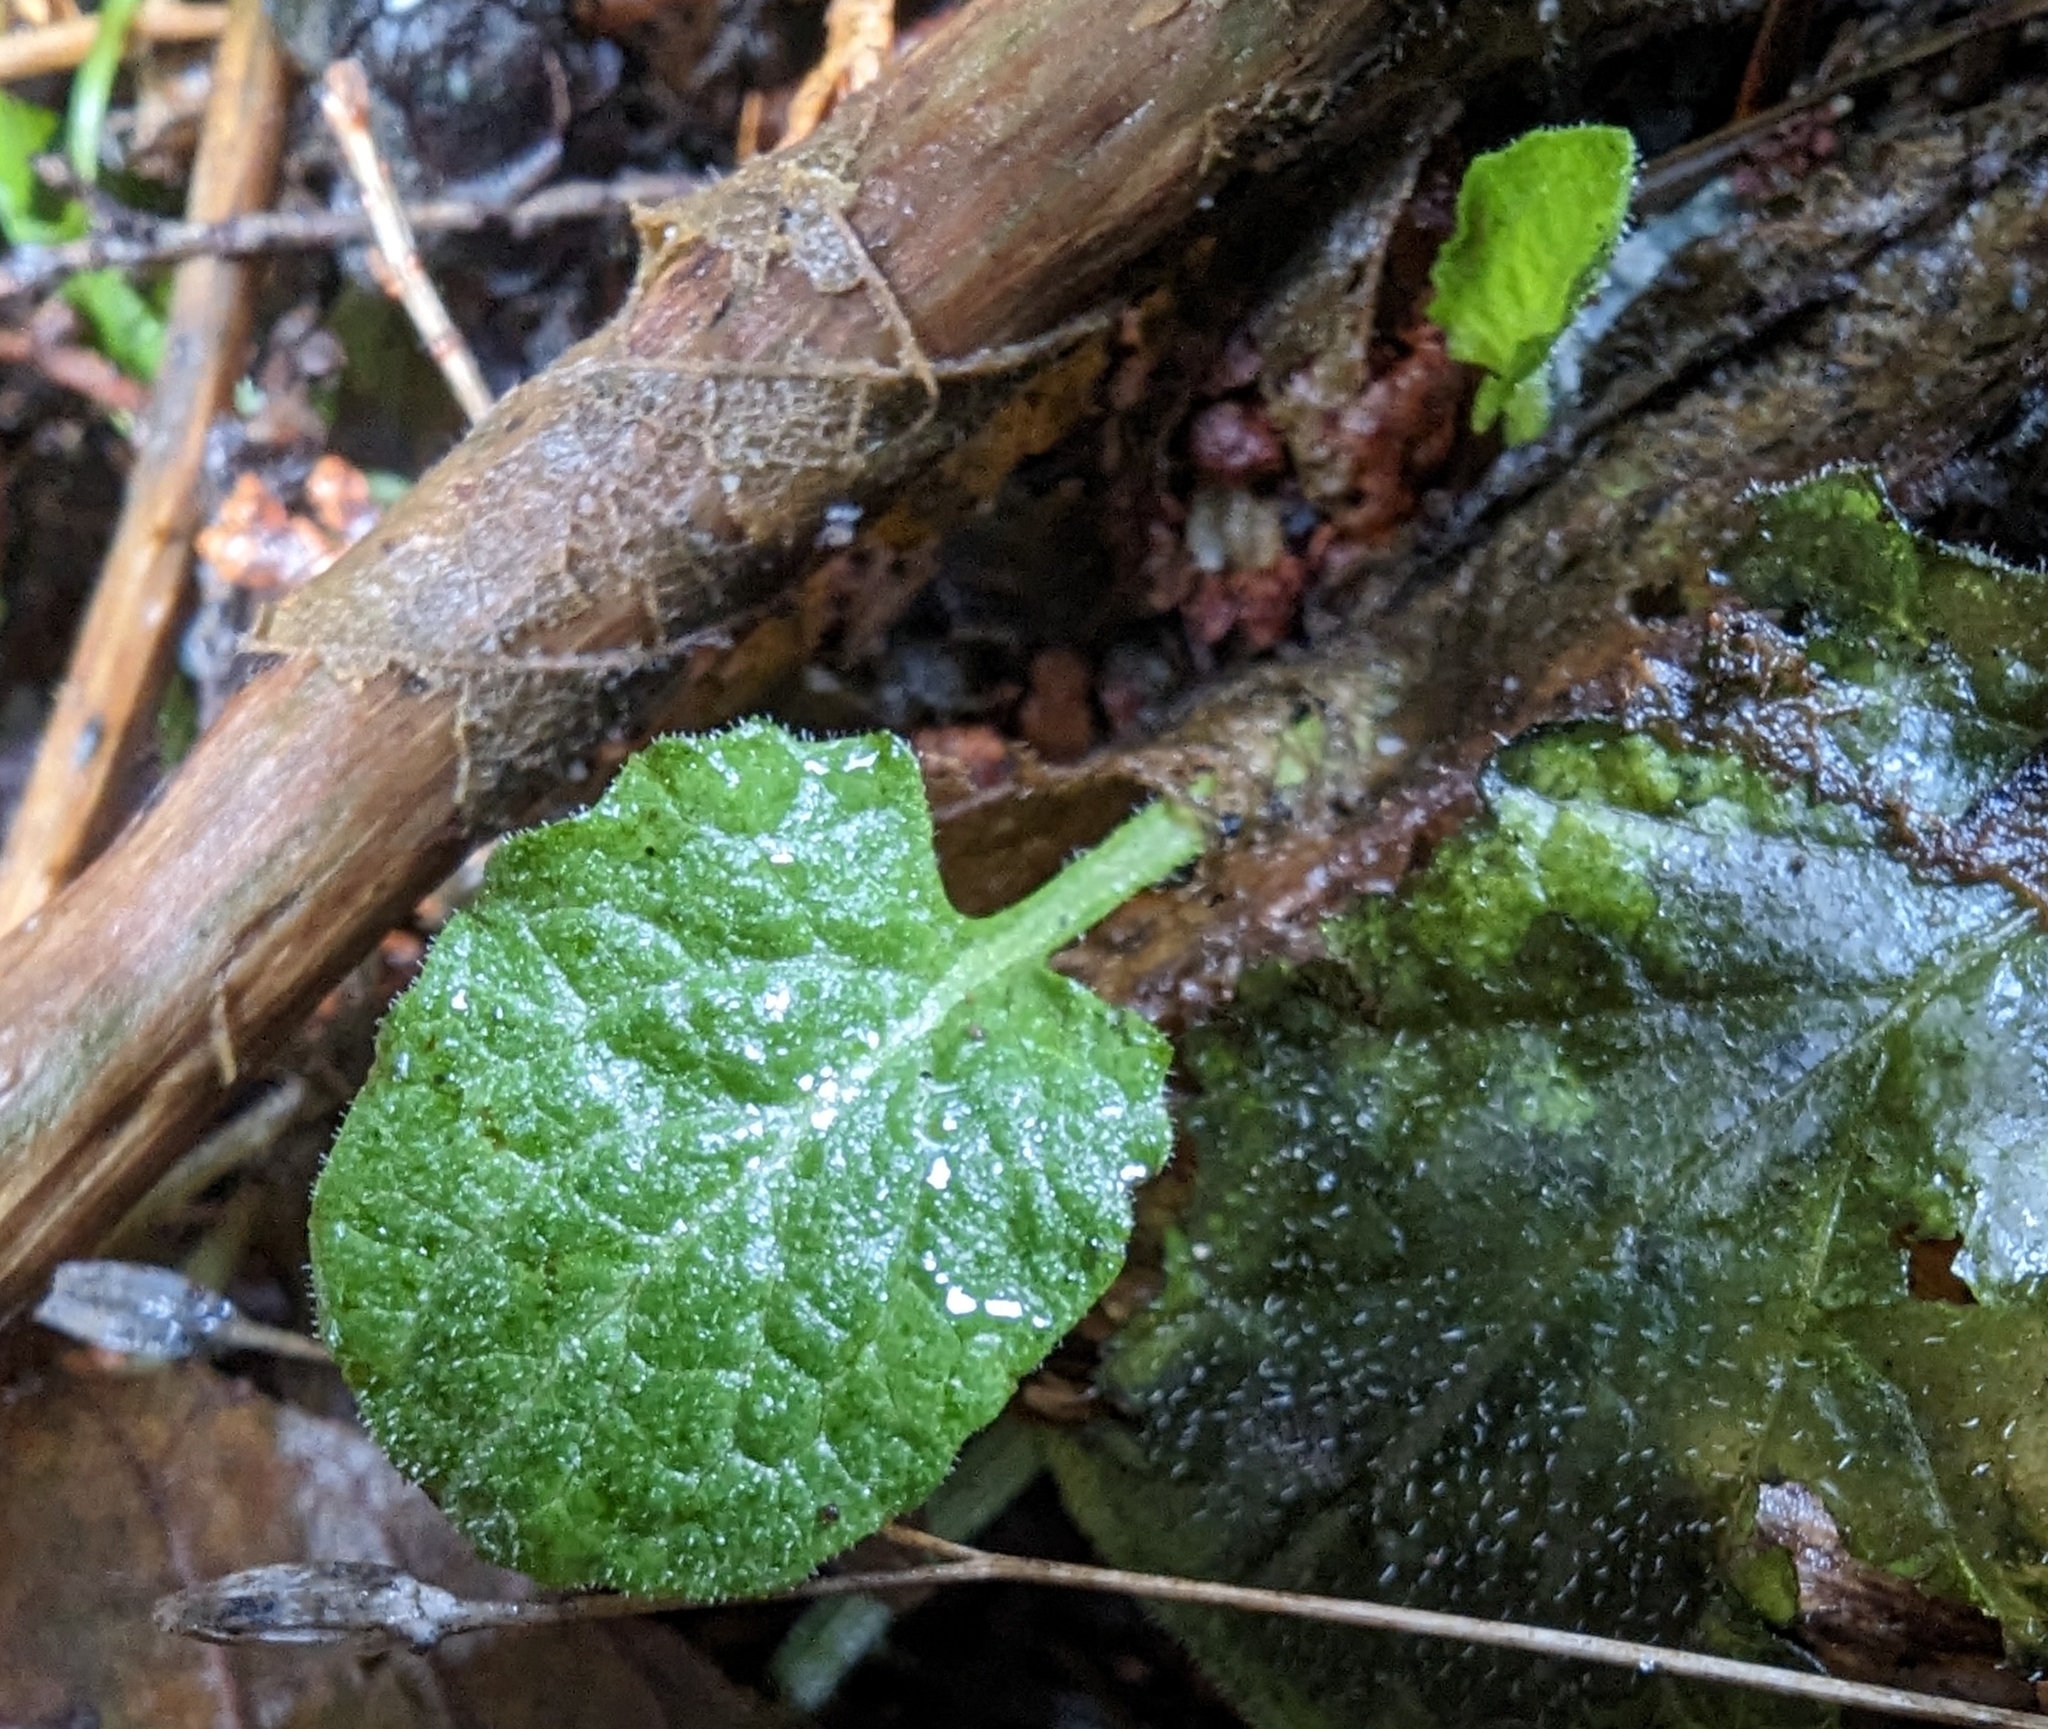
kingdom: Plantae
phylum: Tracheophyta
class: Magnoliopsida
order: Asterales
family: Asteraceae
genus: Lapsana
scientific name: Lapsana communis
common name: Nipplewort
